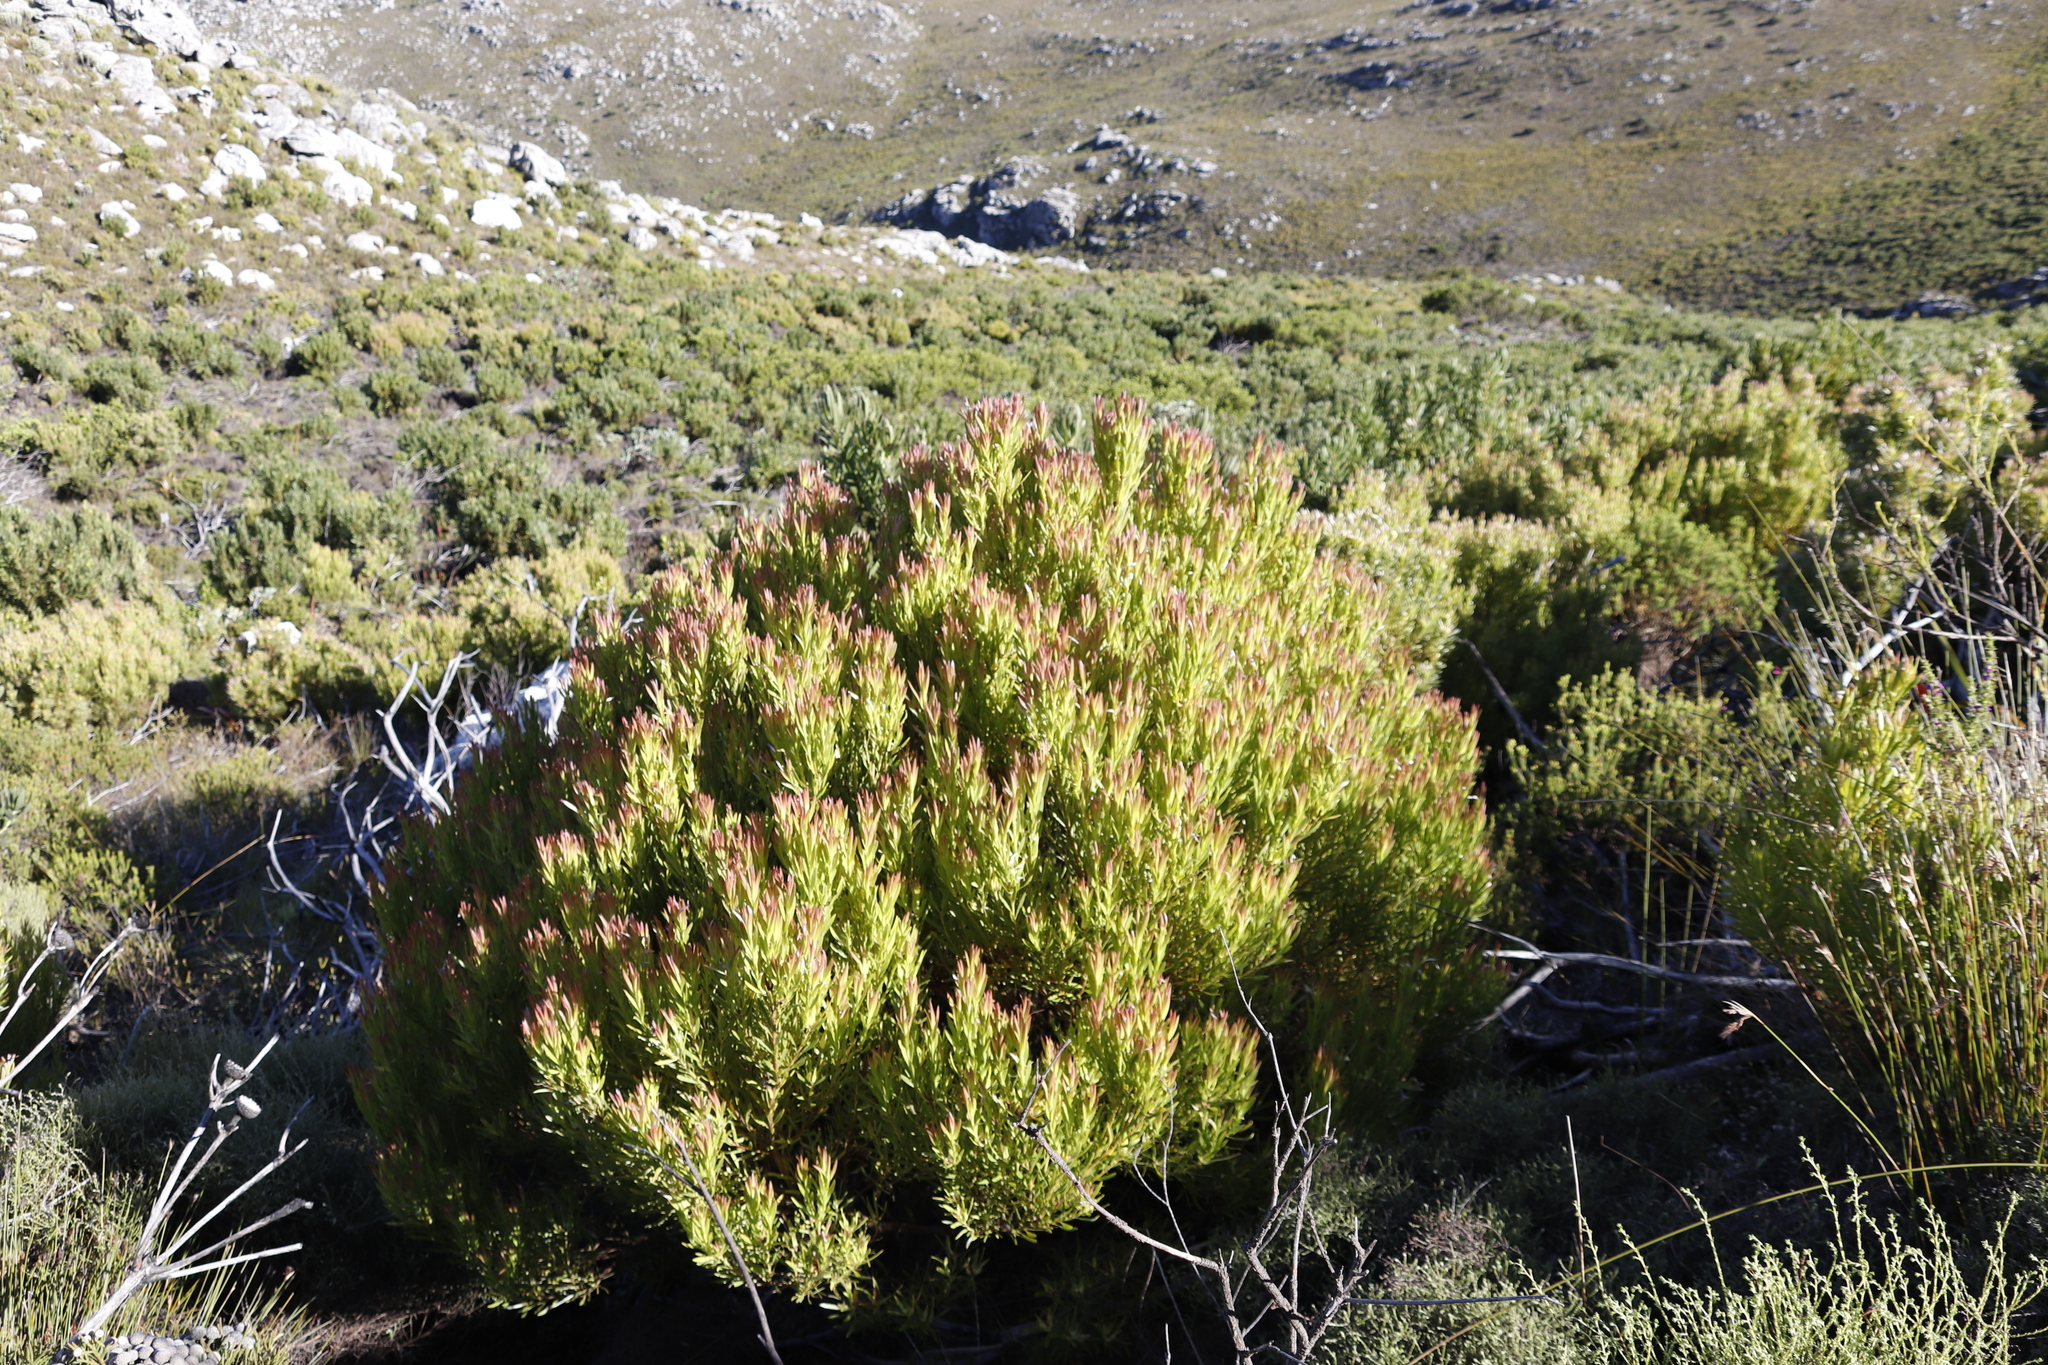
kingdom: Plantae
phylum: Tracheophyta
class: Magnoliopsida
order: Proteales
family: Proteaceae
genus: Leucadendron
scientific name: Leucadendron xanthoconus
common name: Sickle-leaf conebush
